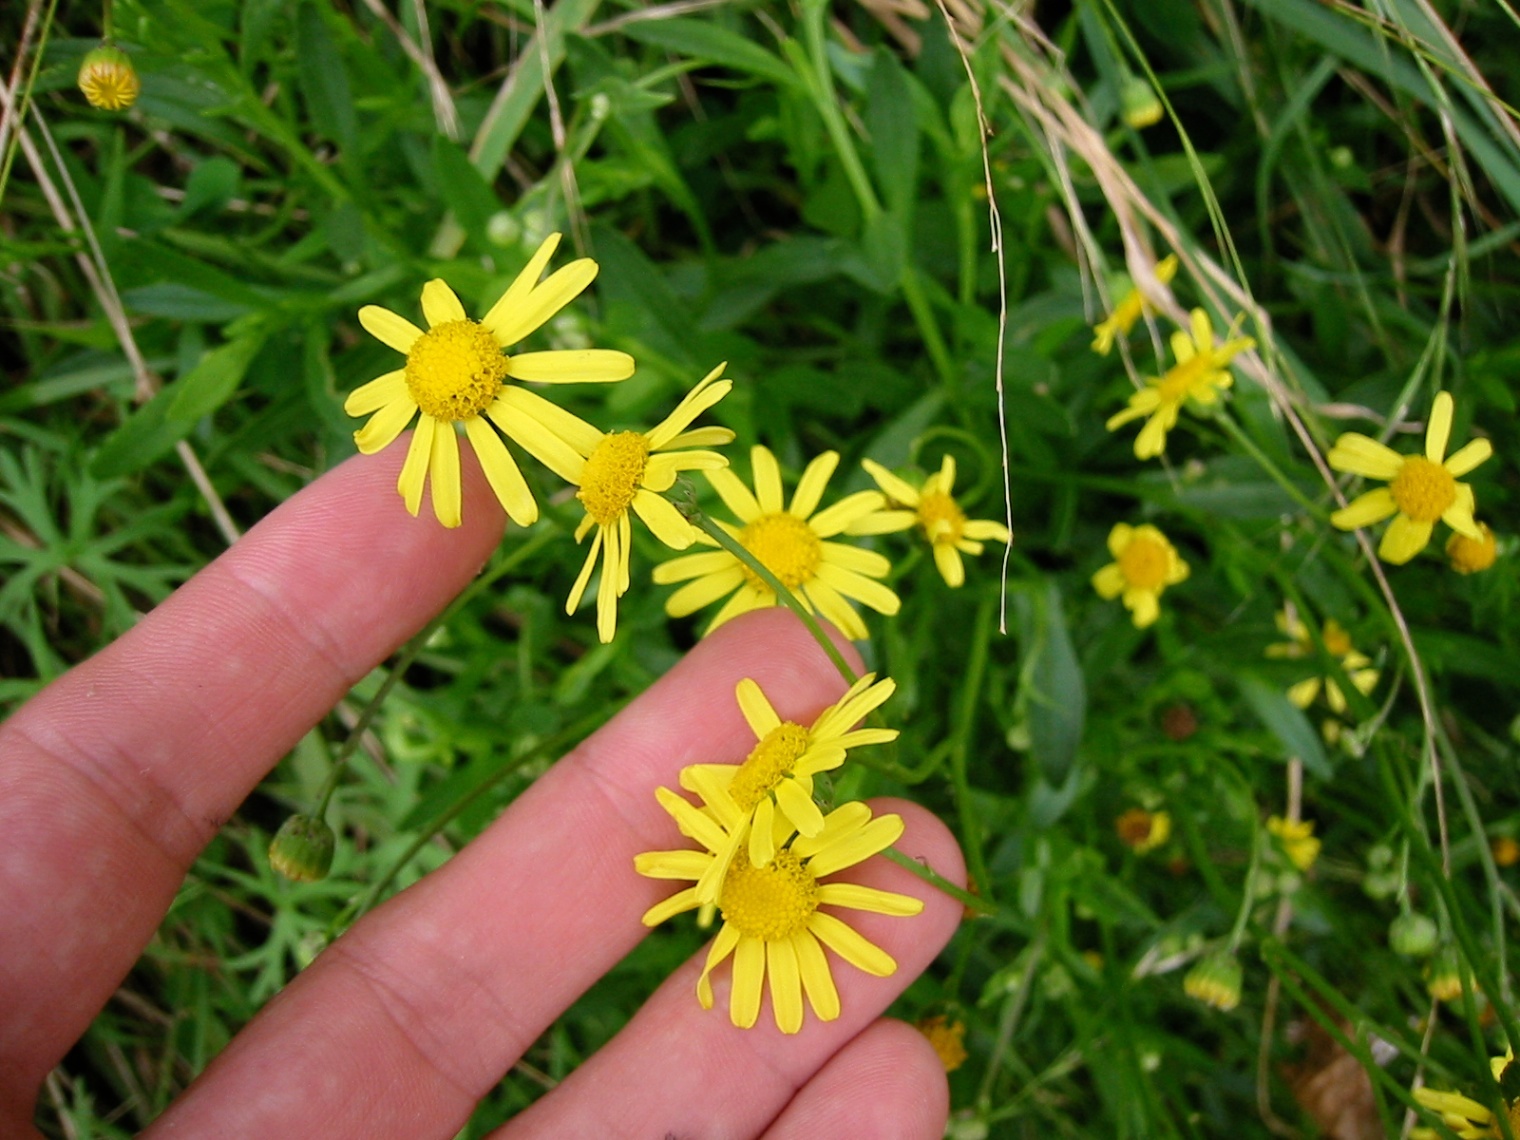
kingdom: Plantae
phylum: Tracheophyta
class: Magnoliopsida
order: Asterales
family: Asteraceae
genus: Senecio
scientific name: Senecio skirrhodon
